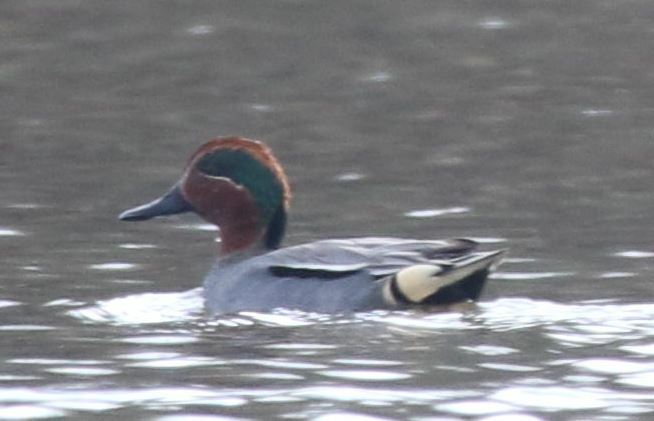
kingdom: Animalia
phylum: Chordata
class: Aves
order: Anseriformes
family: Anatidae
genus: Anas
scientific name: Anas crecca
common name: Eurasian teal
